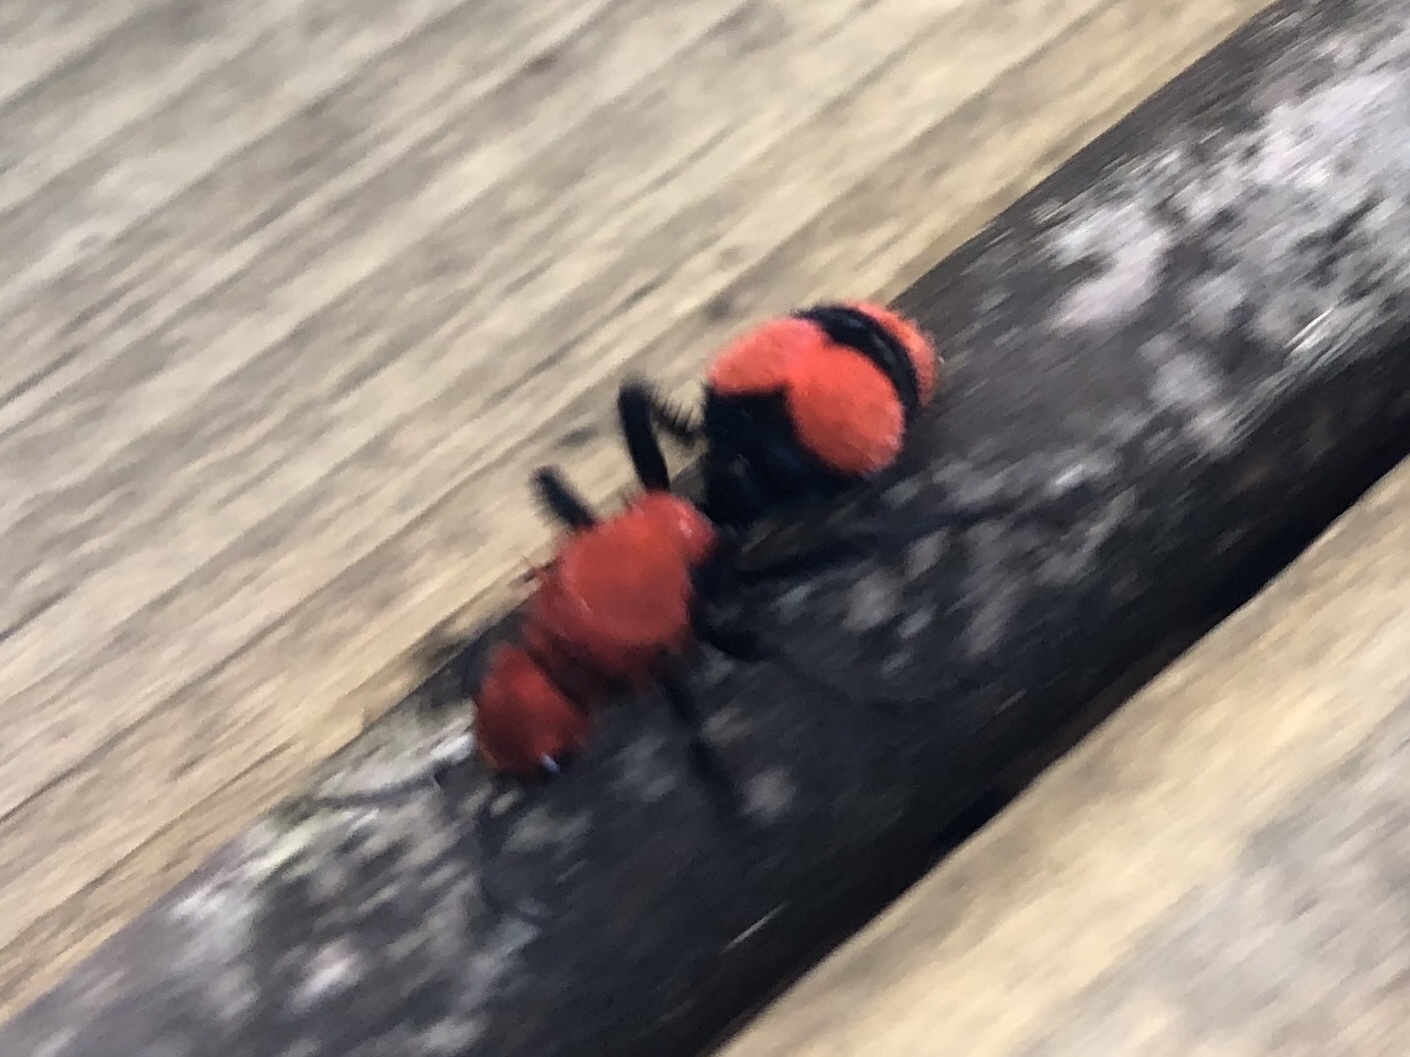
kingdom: Animalia
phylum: Arthropoda
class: Insecta
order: Hymenoptera
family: Mutillidae
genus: Dasymutilla
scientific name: Dasymutilla occidentalis
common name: Common eastern velvet ant
